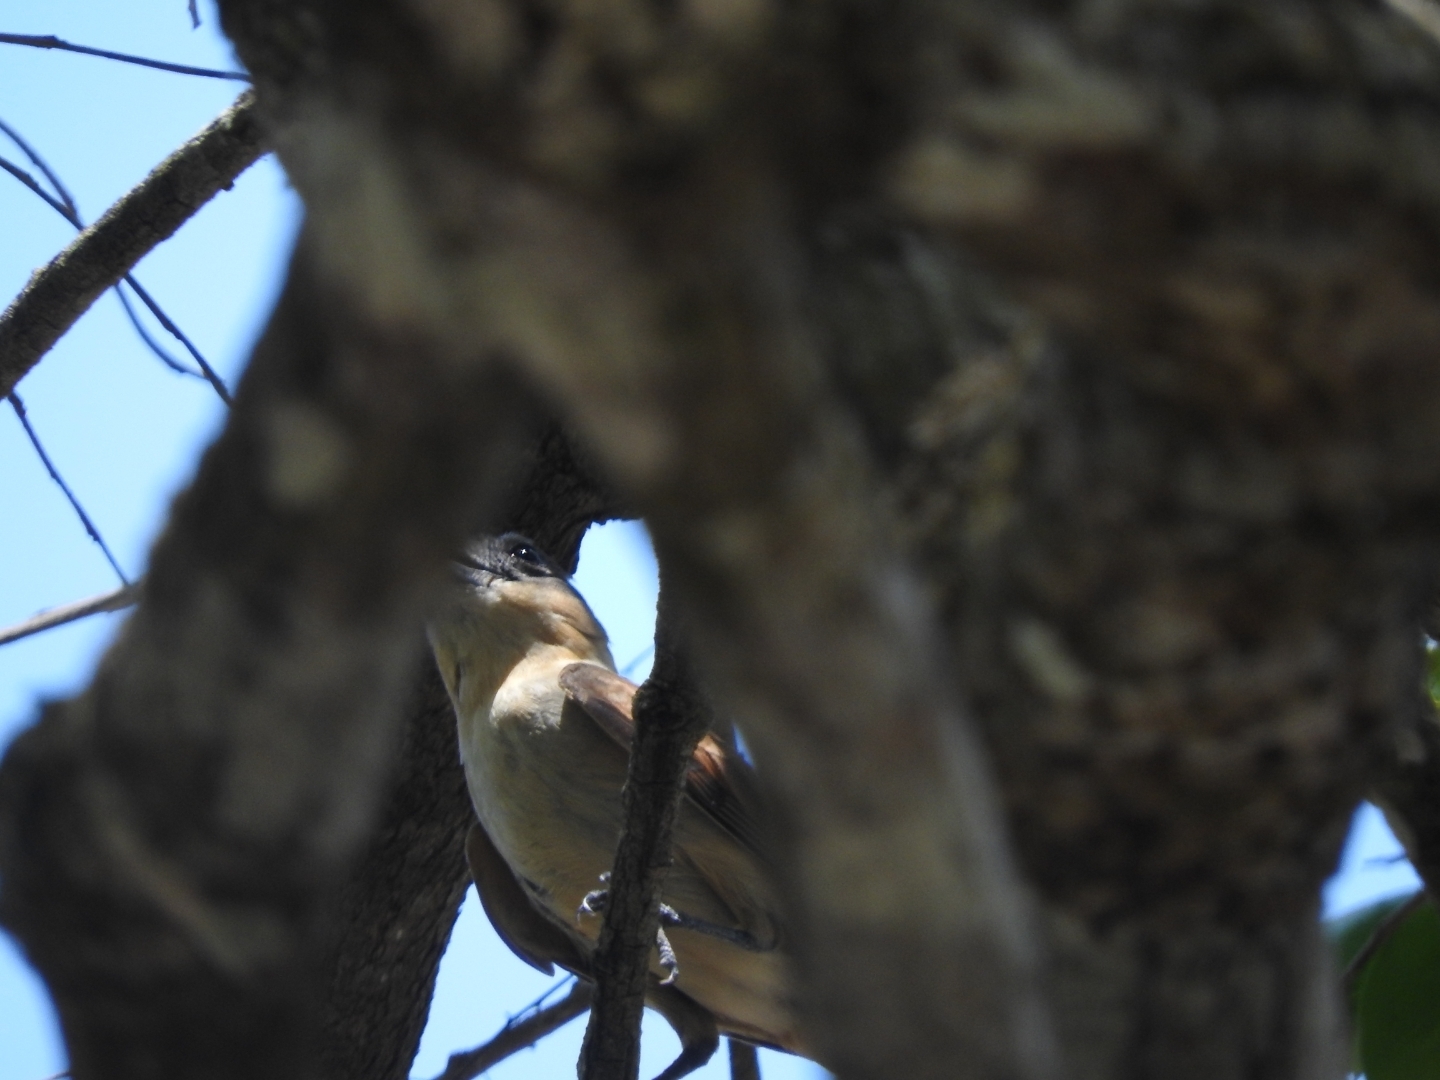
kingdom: Animalia
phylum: Chordata
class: Aves
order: Passeriformes
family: Cotingidae
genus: Pachyramphus
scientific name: Pachyramphus aglaiae
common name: Rose-throated becard
